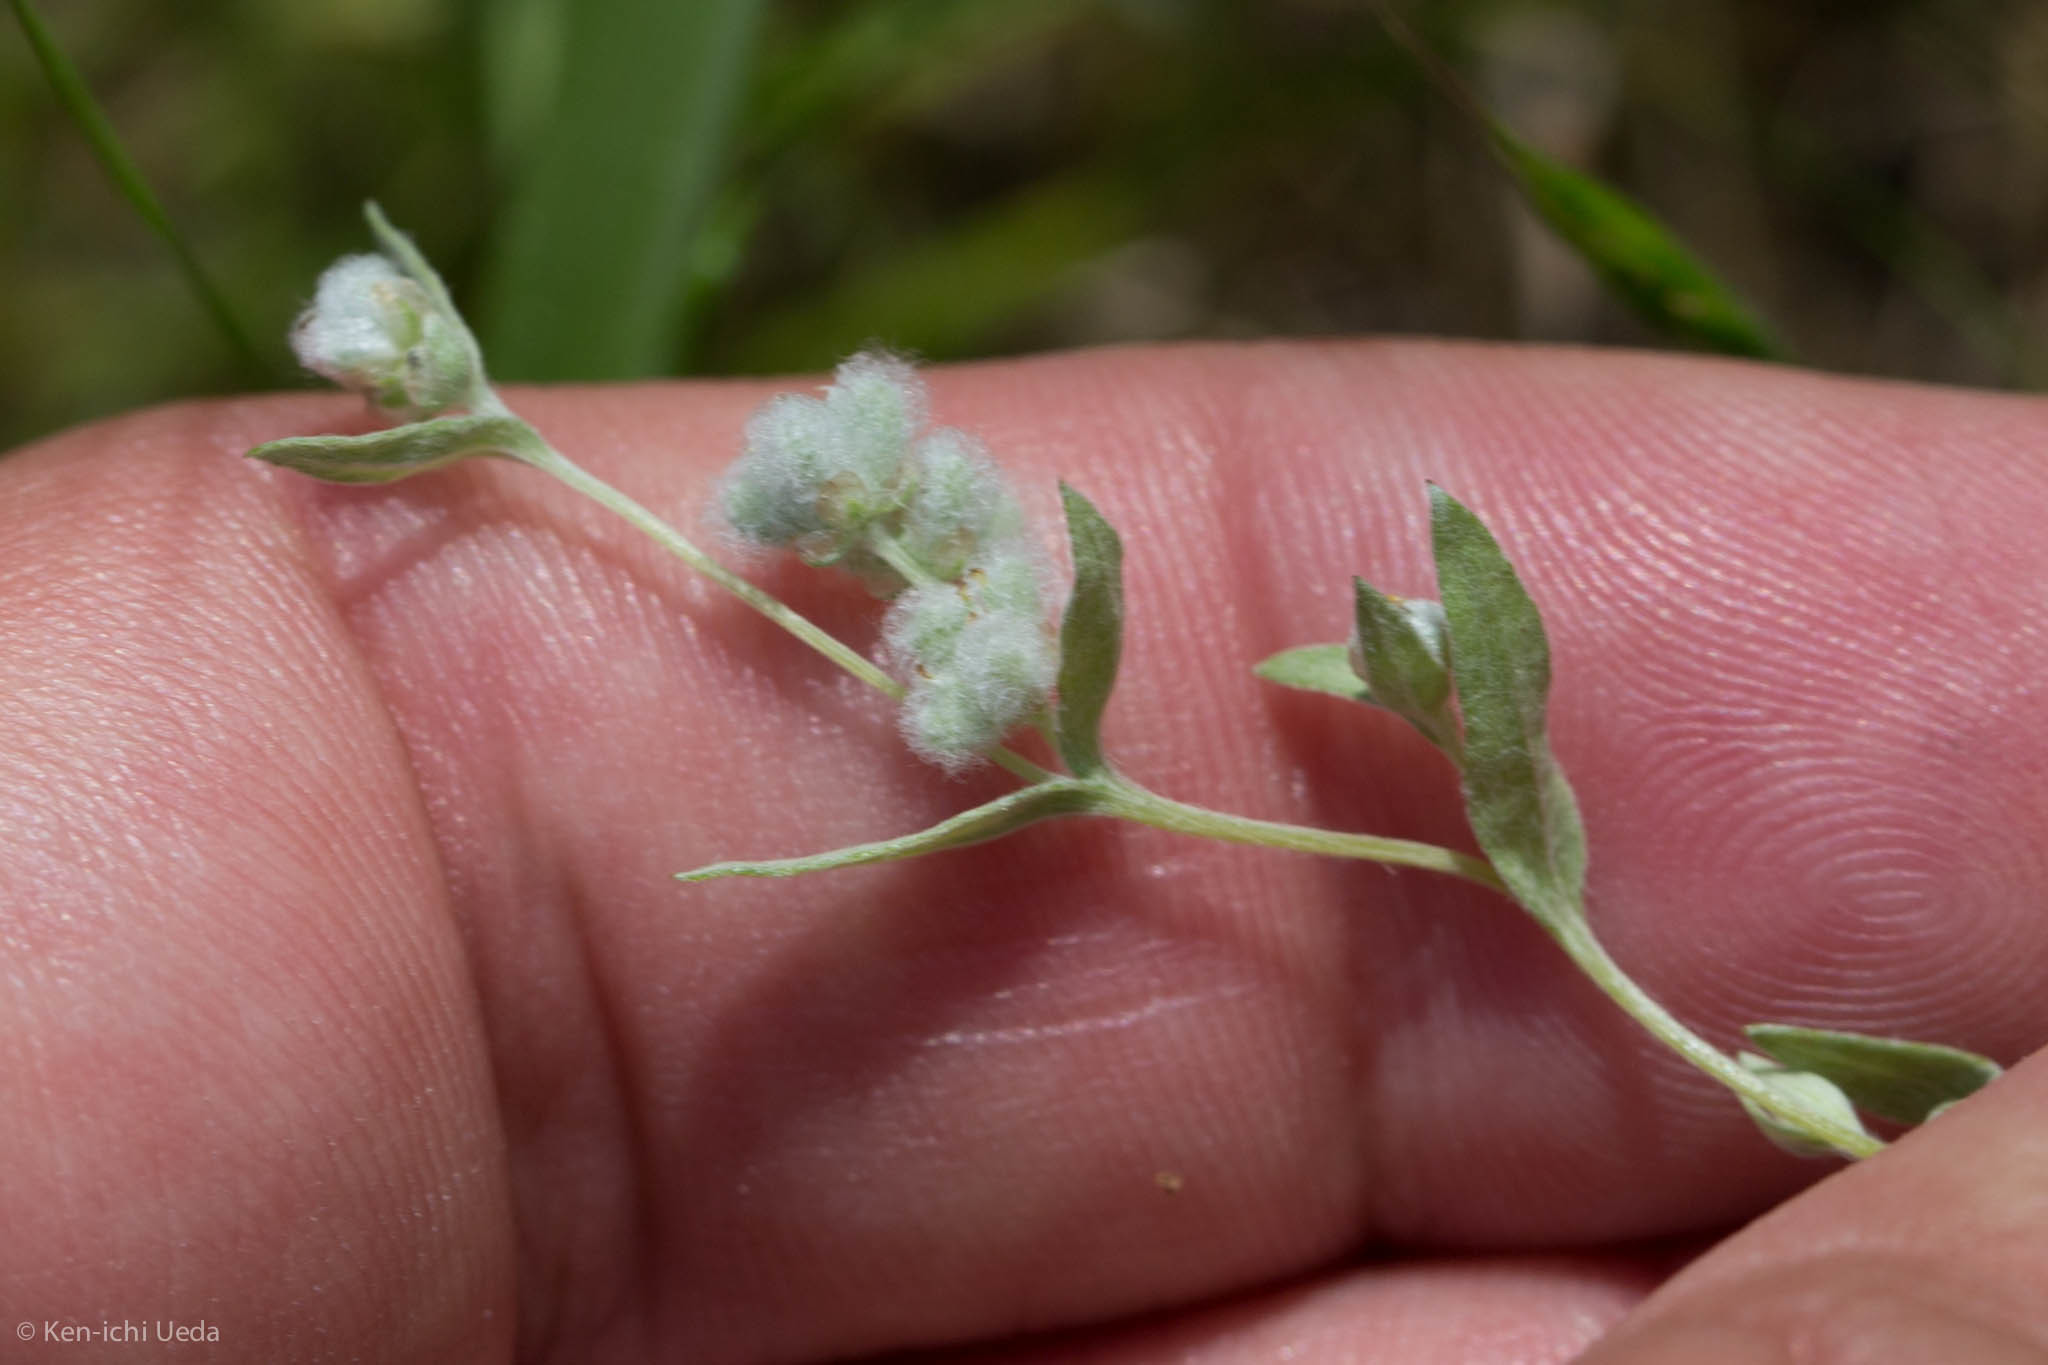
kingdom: Plantae
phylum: Tracheophyta
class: Magnoliopsida
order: Asterales
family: Asteraceae
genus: Bombycilaena
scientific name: Bombycilaena californica
